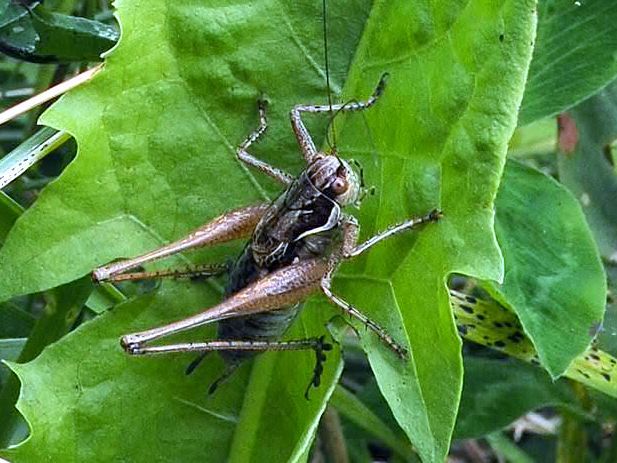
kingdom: Animalia
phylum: Arthropoda
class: Insecta
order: Orthoptera
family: Tettigoniidae
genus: Pachytrachis
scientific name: Pachytrachis gracilis
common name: Graceful bush-cricket
